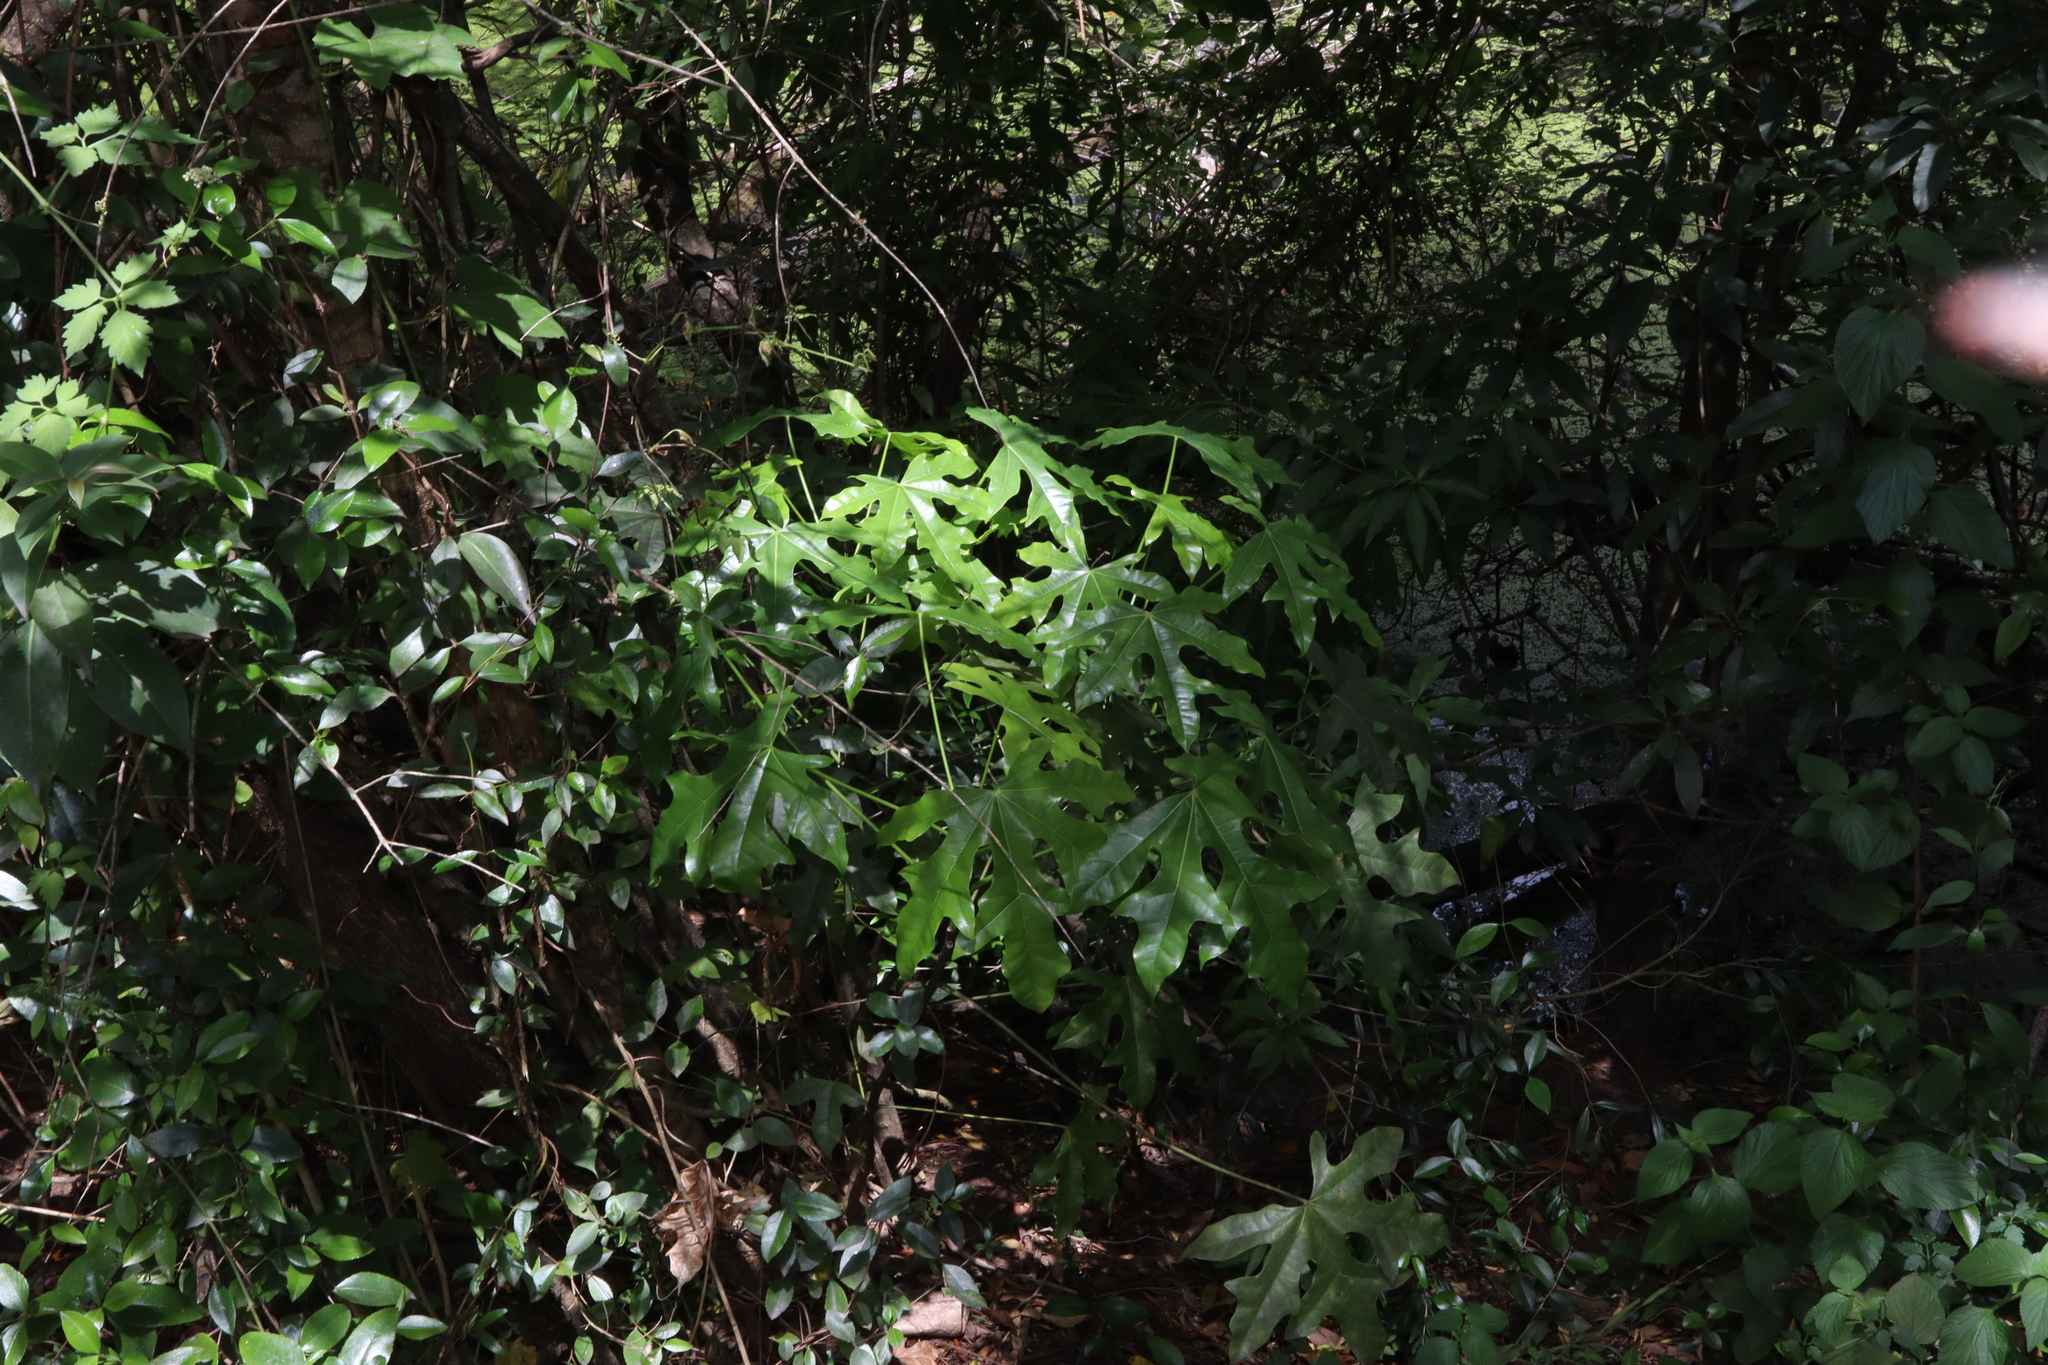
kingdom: Plantae
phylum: Tracheophyta
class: Magnoliopsida
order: Malvales
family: Malvaceae
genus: Brachychiton
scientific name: Brachychiton acerifolius
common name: Illawarra flame tree
